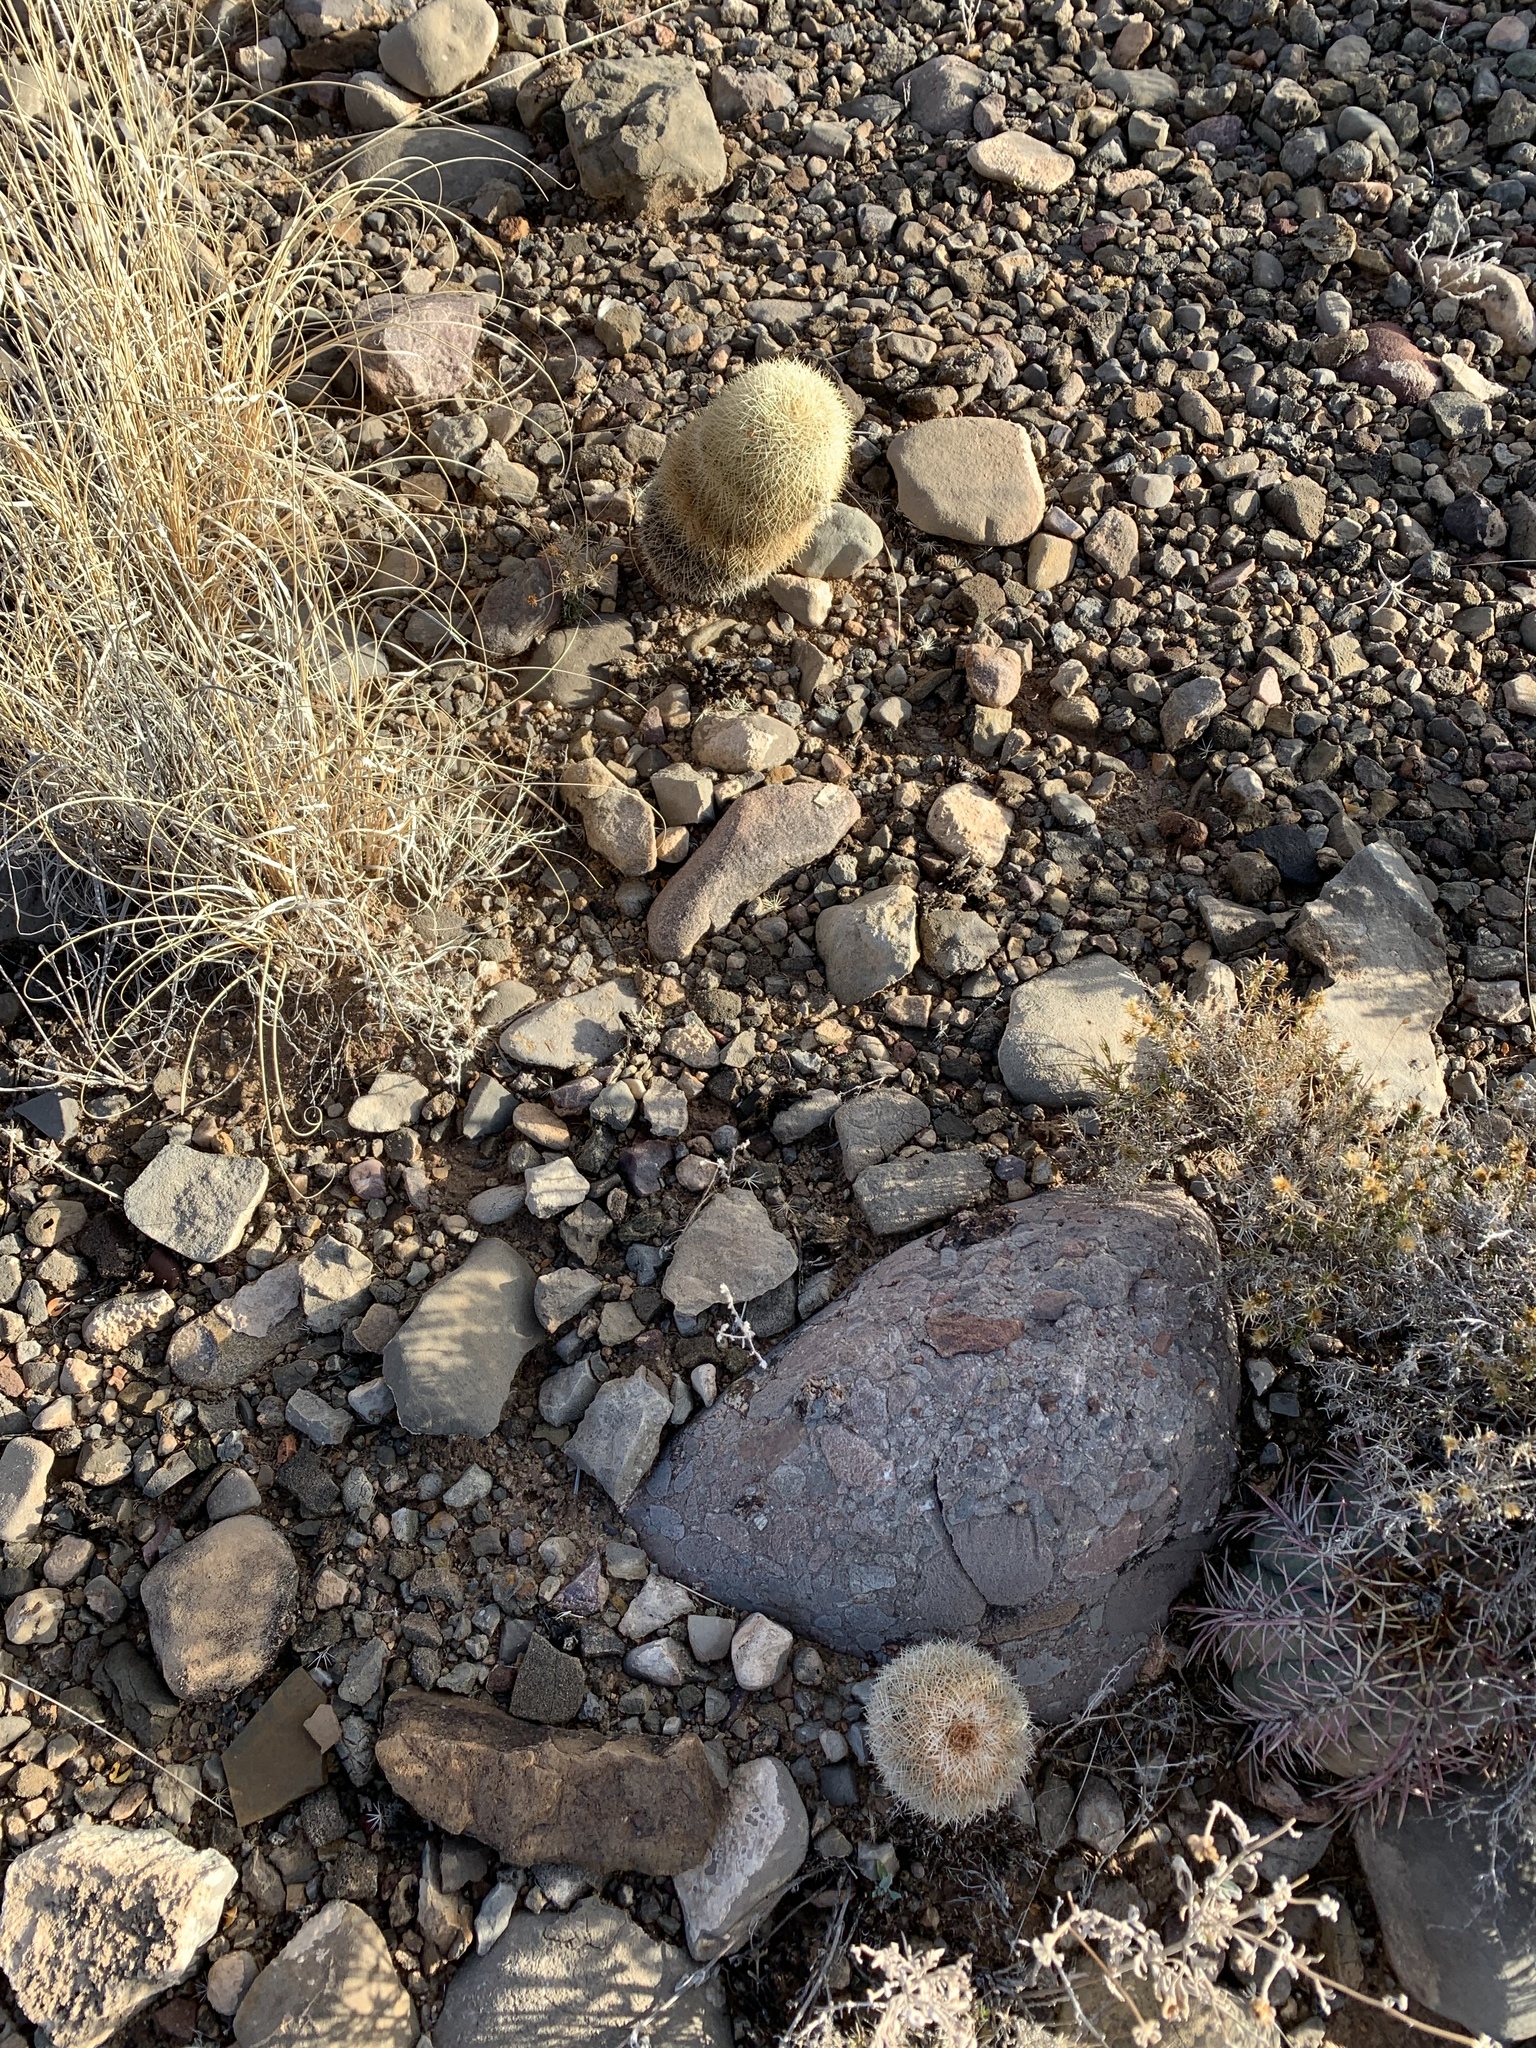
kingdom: Plantae
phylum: Tracheophyta
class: Magnoliopsida
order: Caryophyllales
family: Cactaceae
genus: Echinocereus
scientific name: Echinocereus dasyacanthus
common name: Spiny hedgehog cactus
